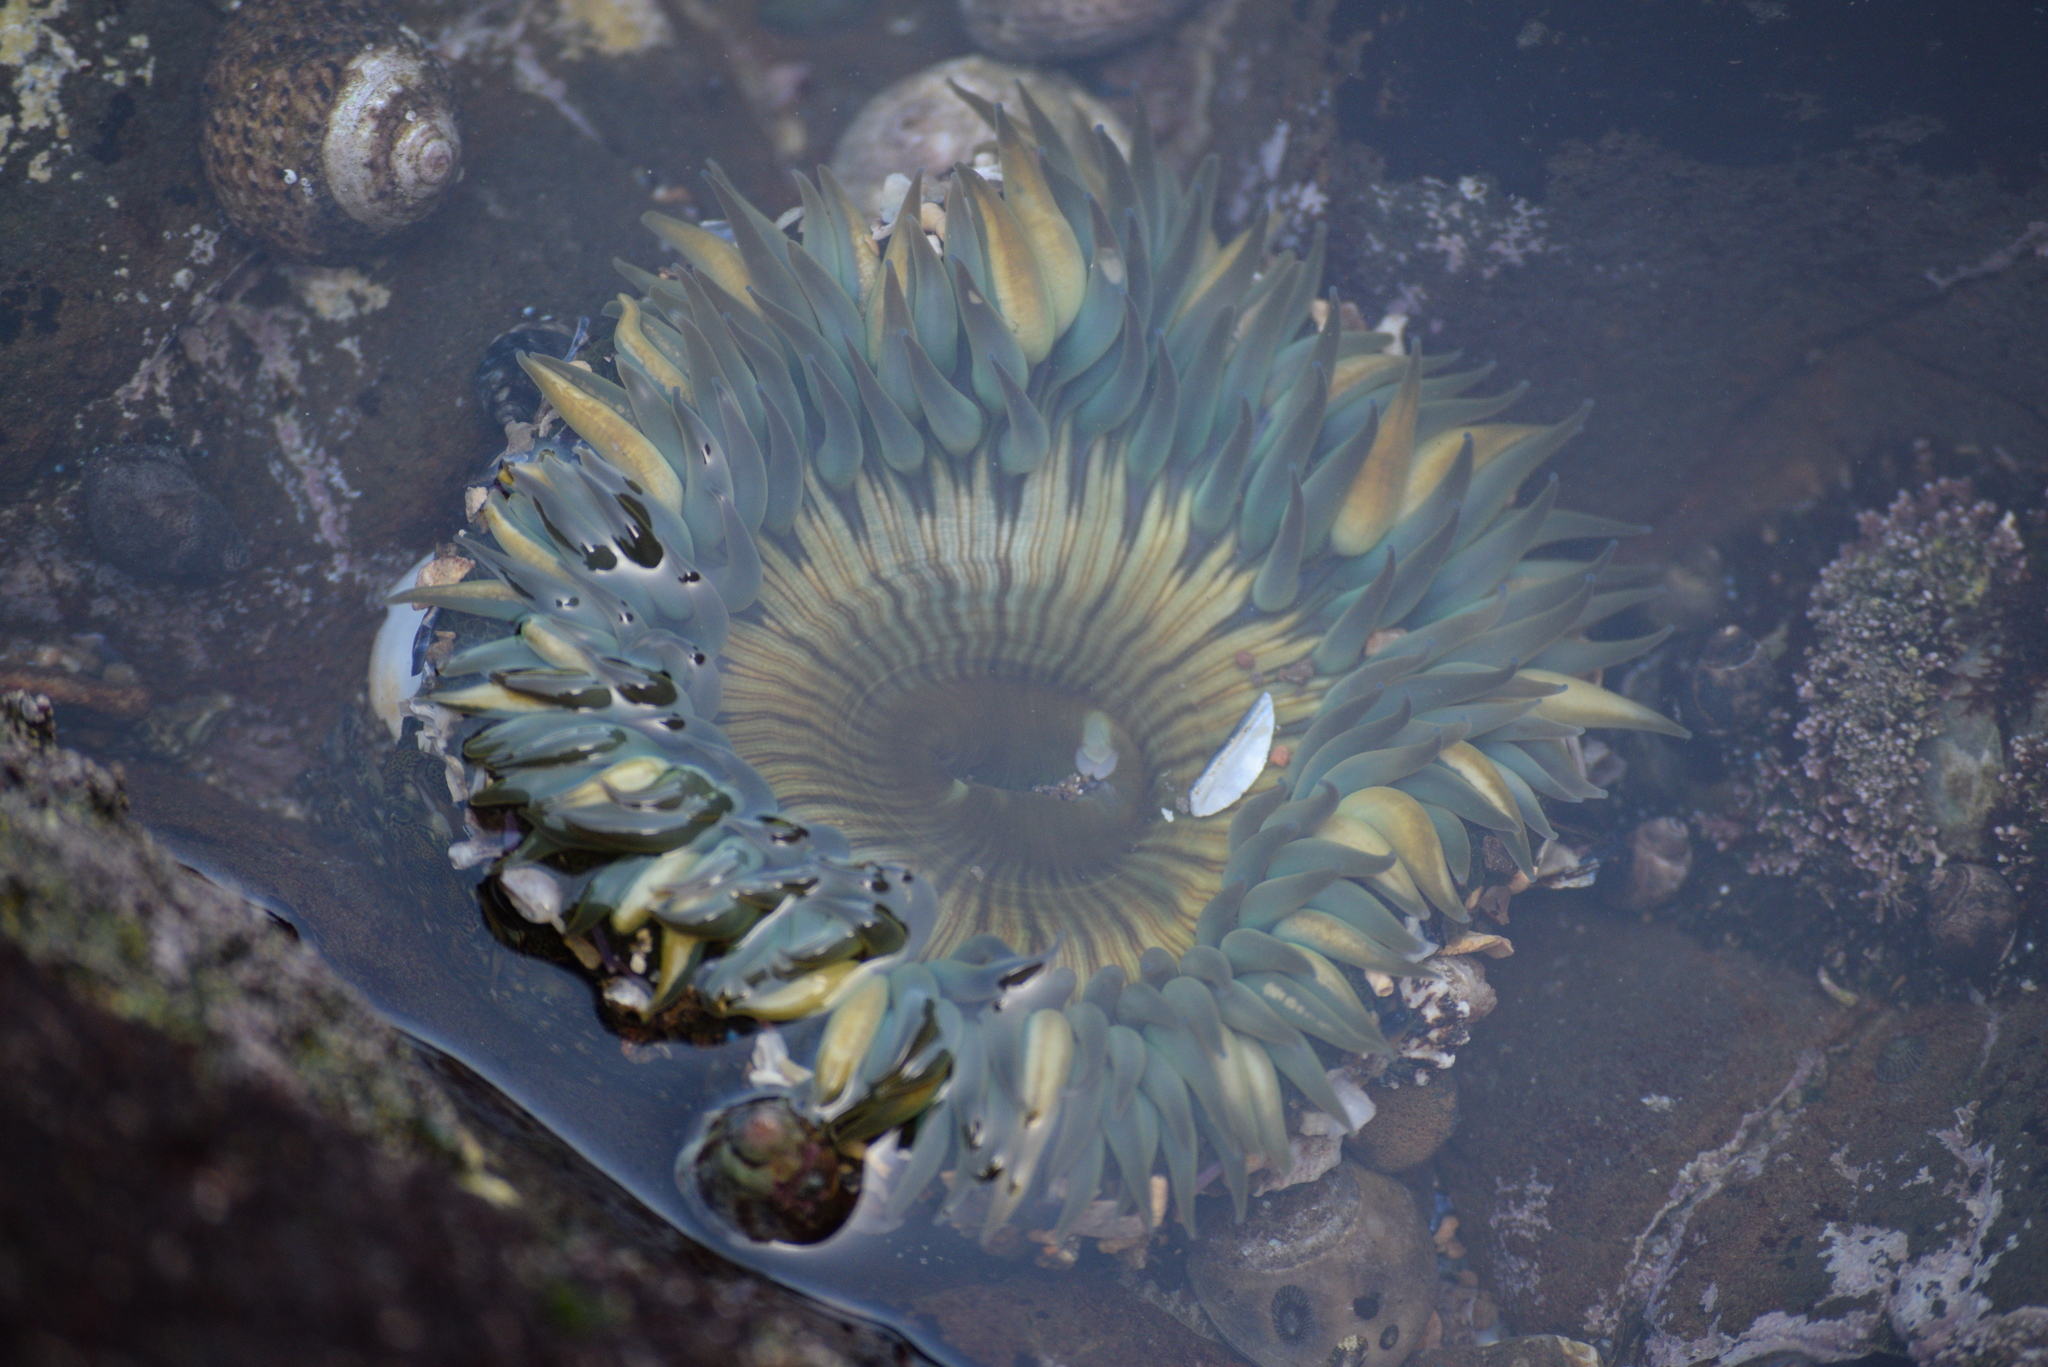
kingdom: Animalia
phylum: Cnidaria
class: Anthozoa
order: Actiniaria
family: Actiniidae
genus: Anthopleura
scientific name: Anthopleura sola
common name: Sun anemone
